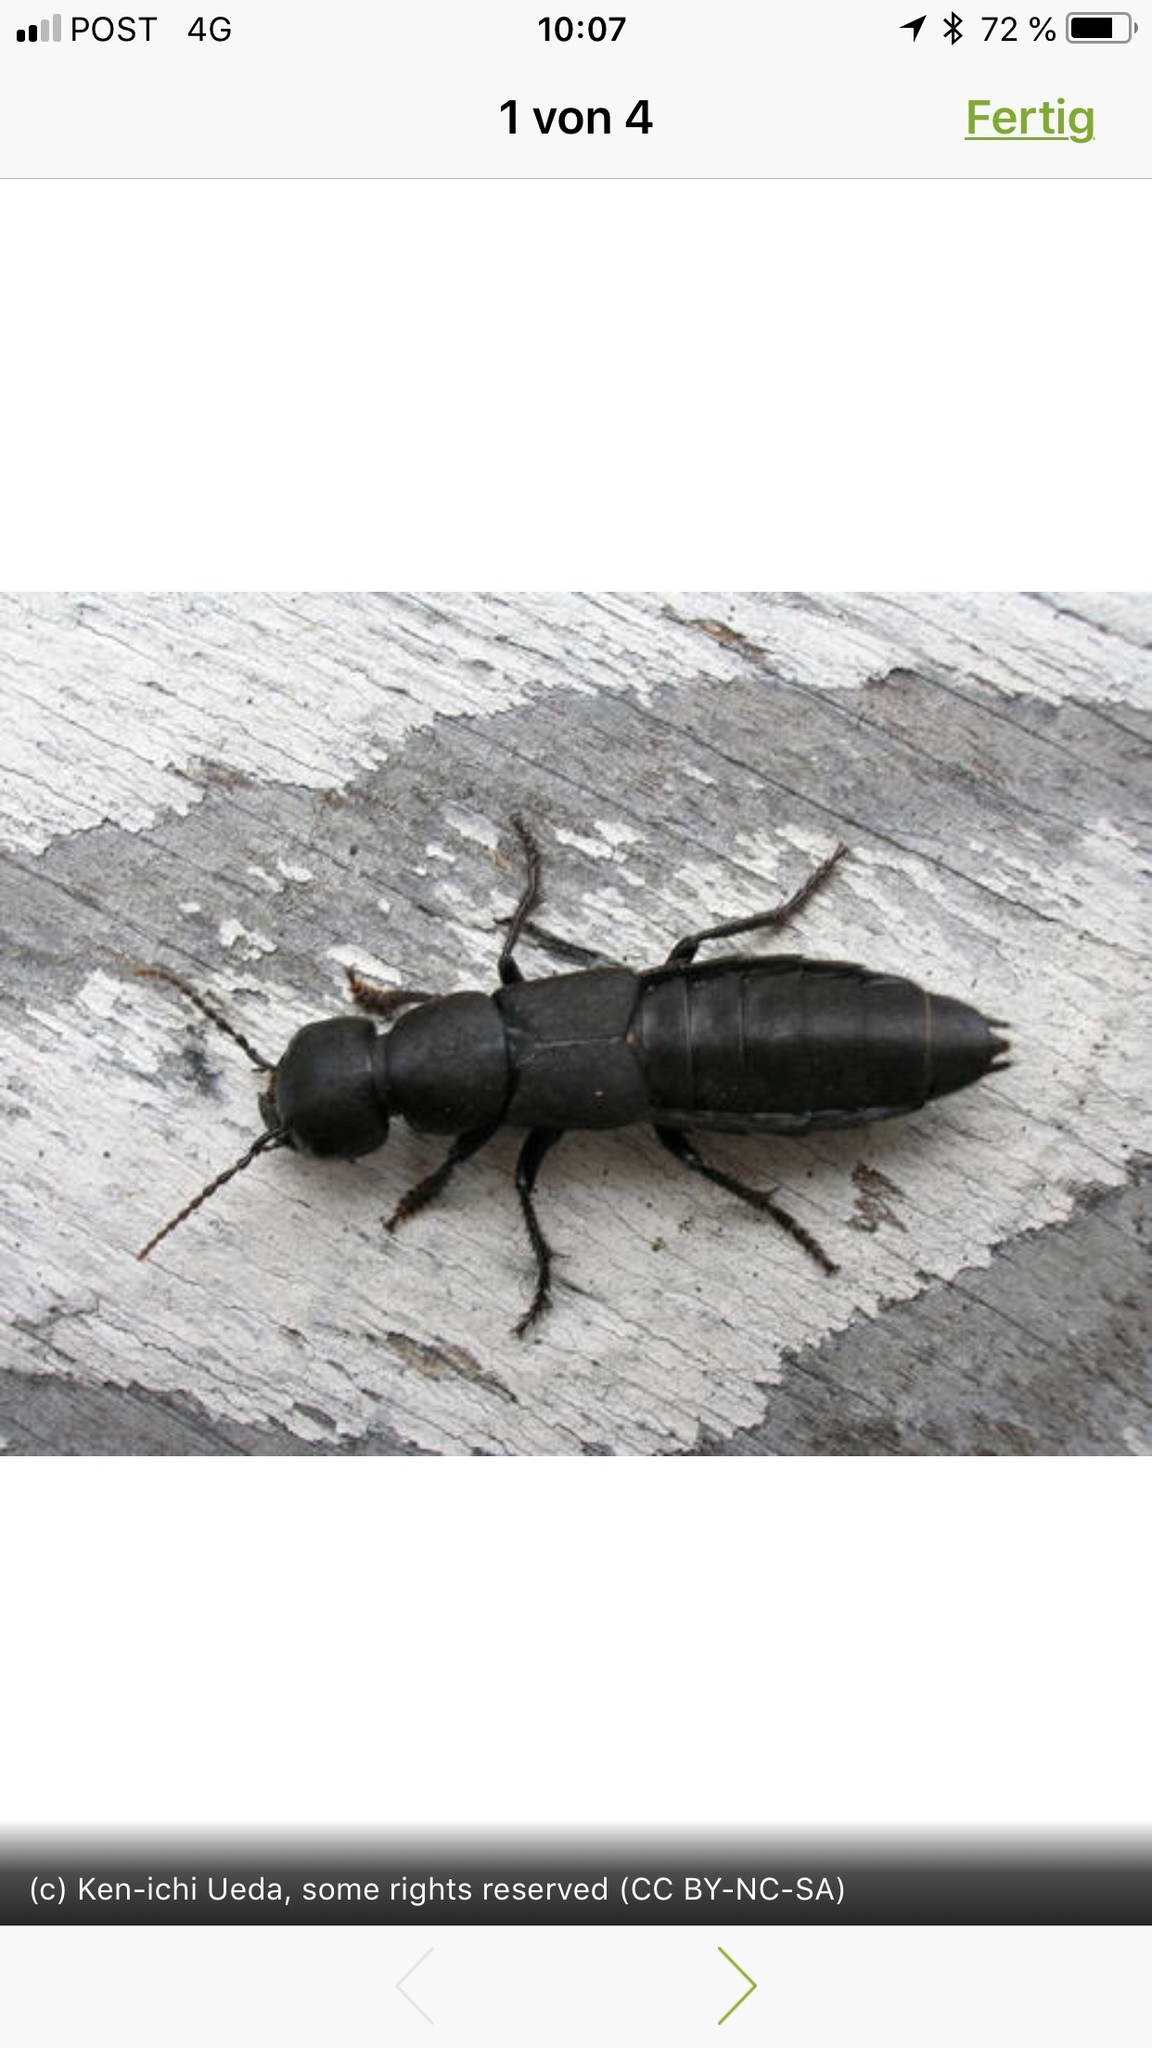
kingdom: Animalia
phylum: Arthropoda
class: Insecta
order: Coleoptera
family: Staphylinidae
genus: Ocypus
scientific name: Ocypus olens
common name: Devil's coach-horse
